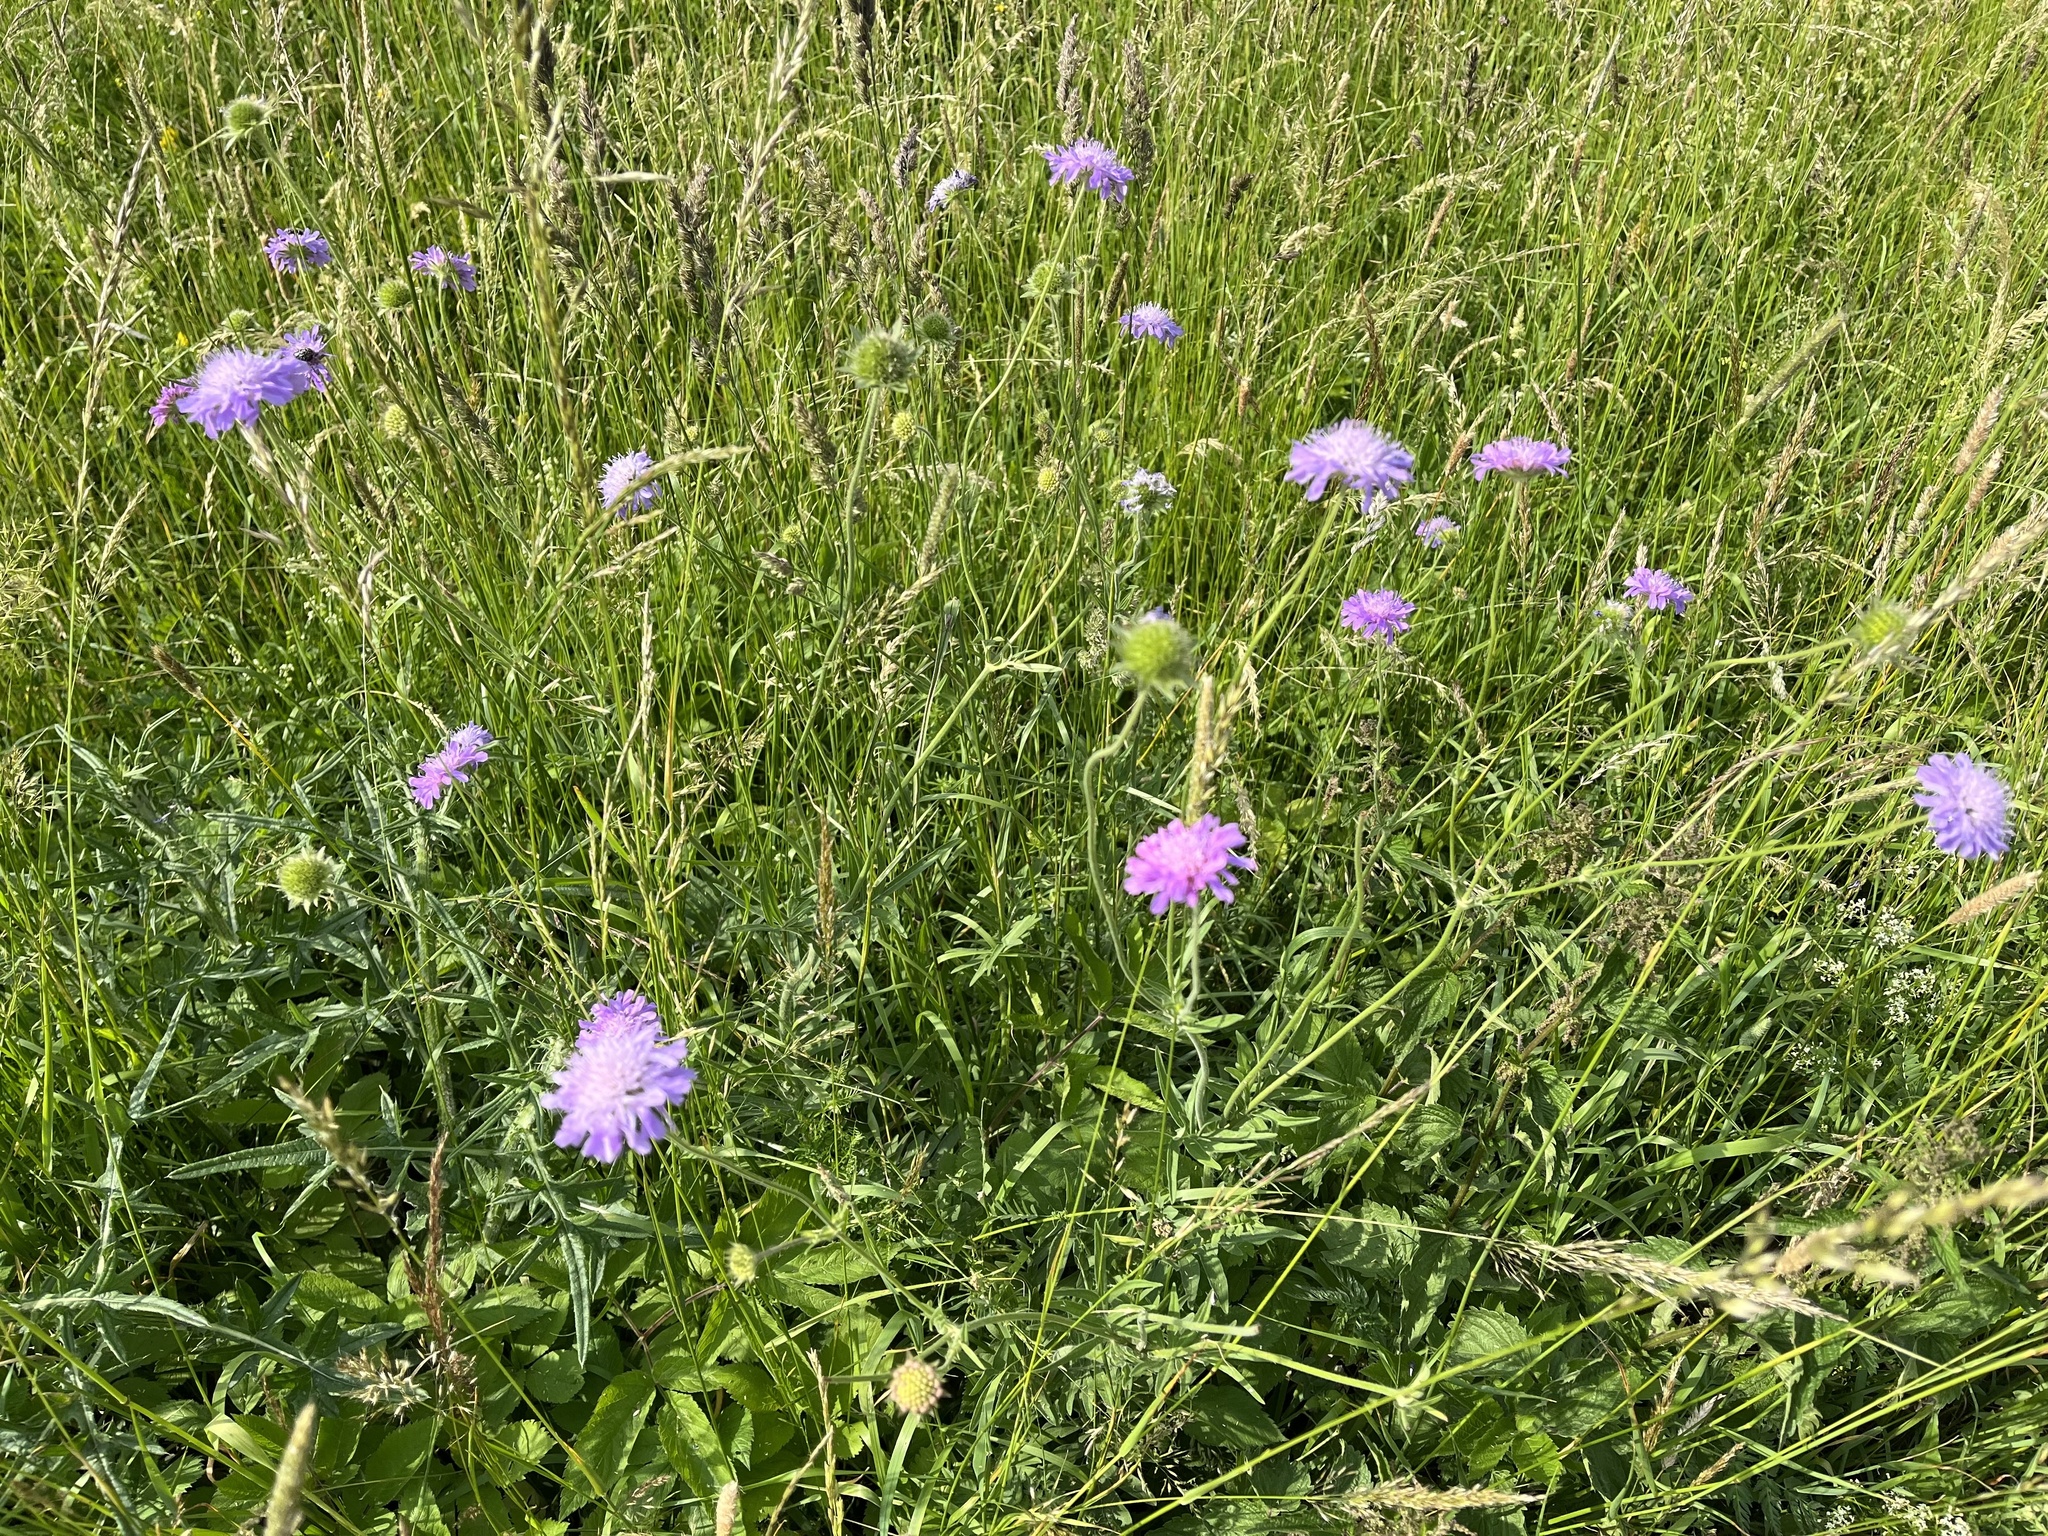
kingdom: Plantae
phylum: Tracheophyta
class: Magnoliopsida
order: Dipsacales
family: Caprifoliaceae
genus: Knautia
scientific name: Knautia arvensis
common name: Field scabiosa
